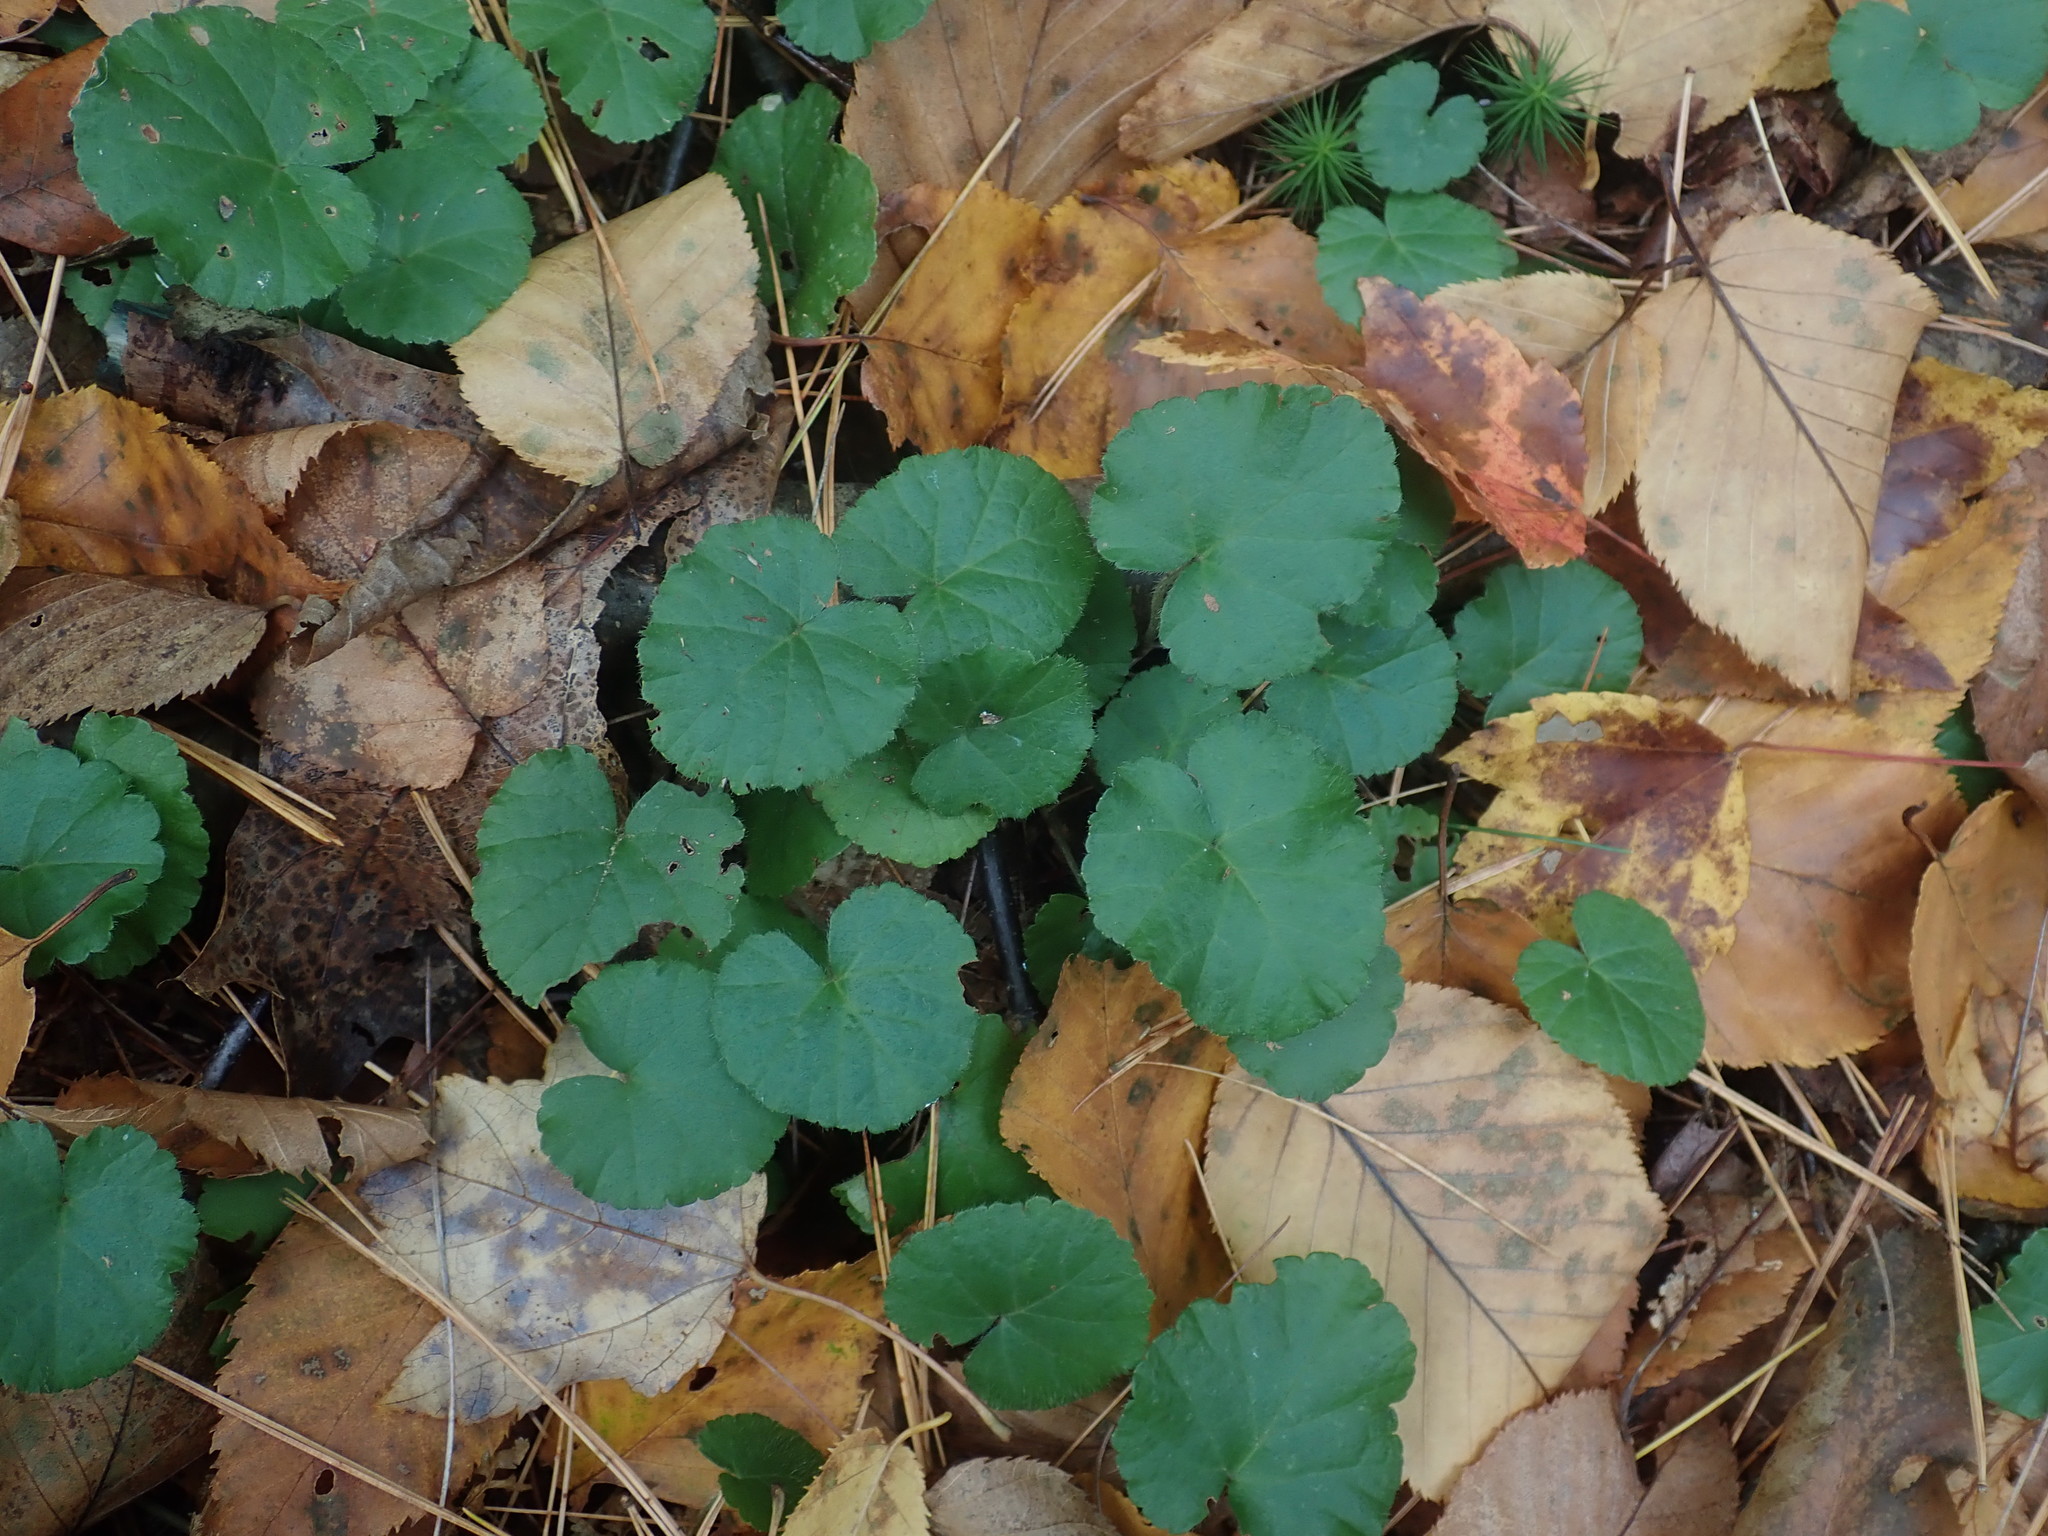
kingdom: Plantae
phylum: Tracheophyta
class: Magnoliopsida
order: Rosales
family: Rosaceae
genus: Dalibarda
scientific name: Dalibarda repens
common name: Dewdrop
